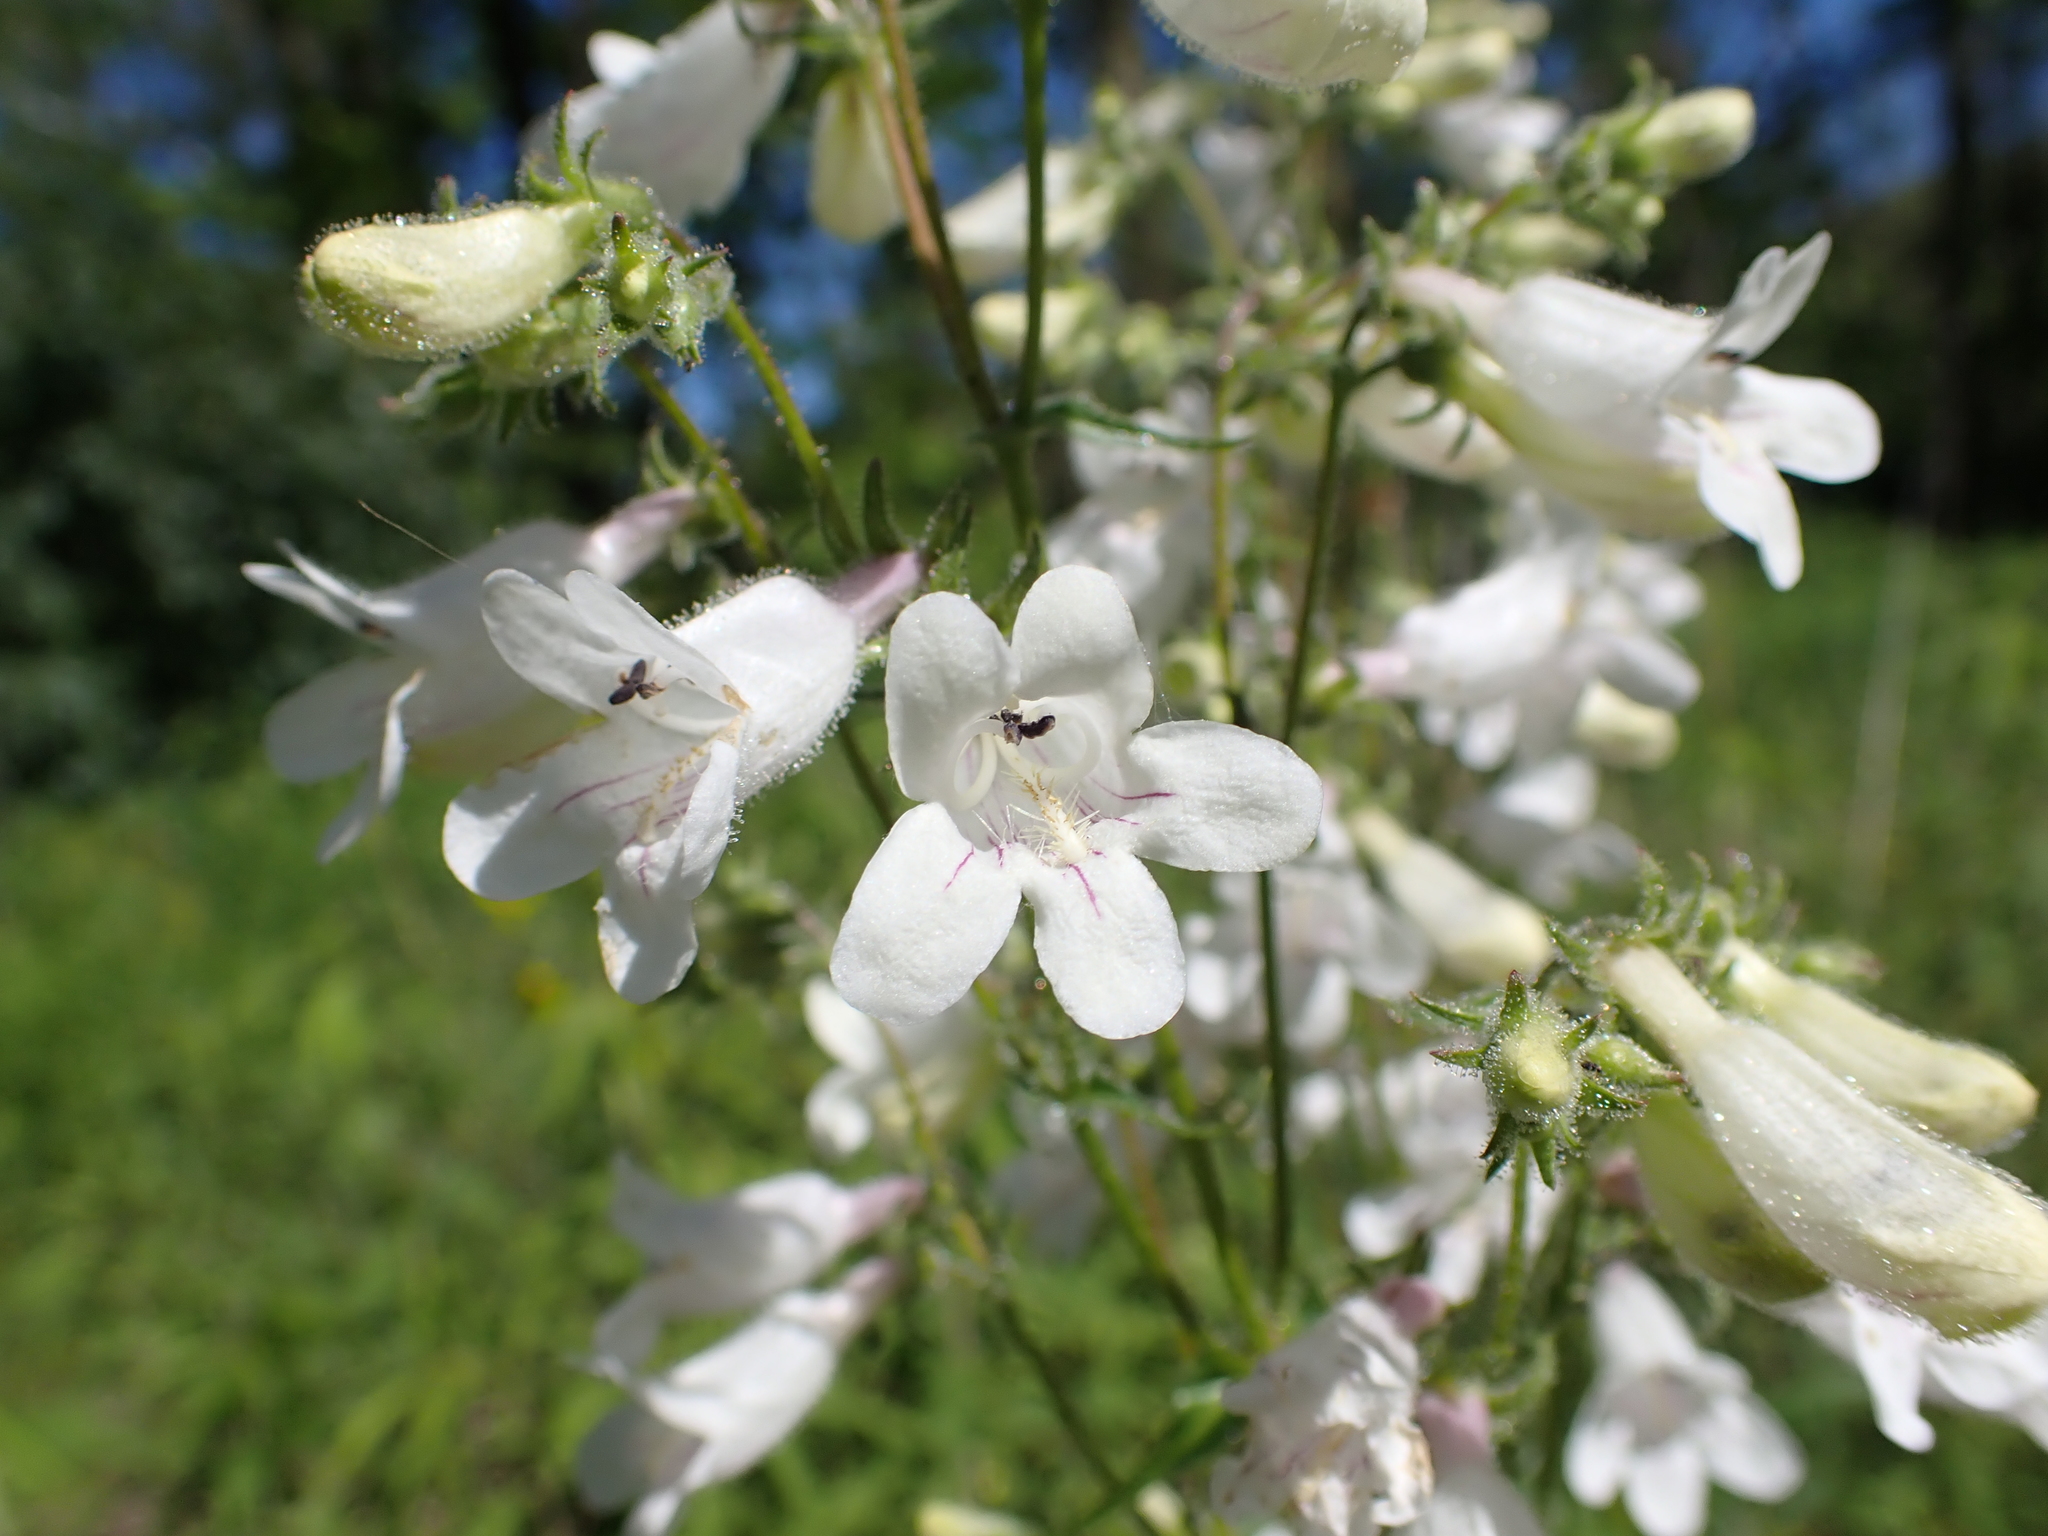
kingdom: Plantae
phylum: Tracheophyta
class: Magnoliopsida
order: Lamiales
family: Plantaginaceae
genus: Penstemon
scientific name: Penstemon digitalis
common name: Foxglove beardtongue
